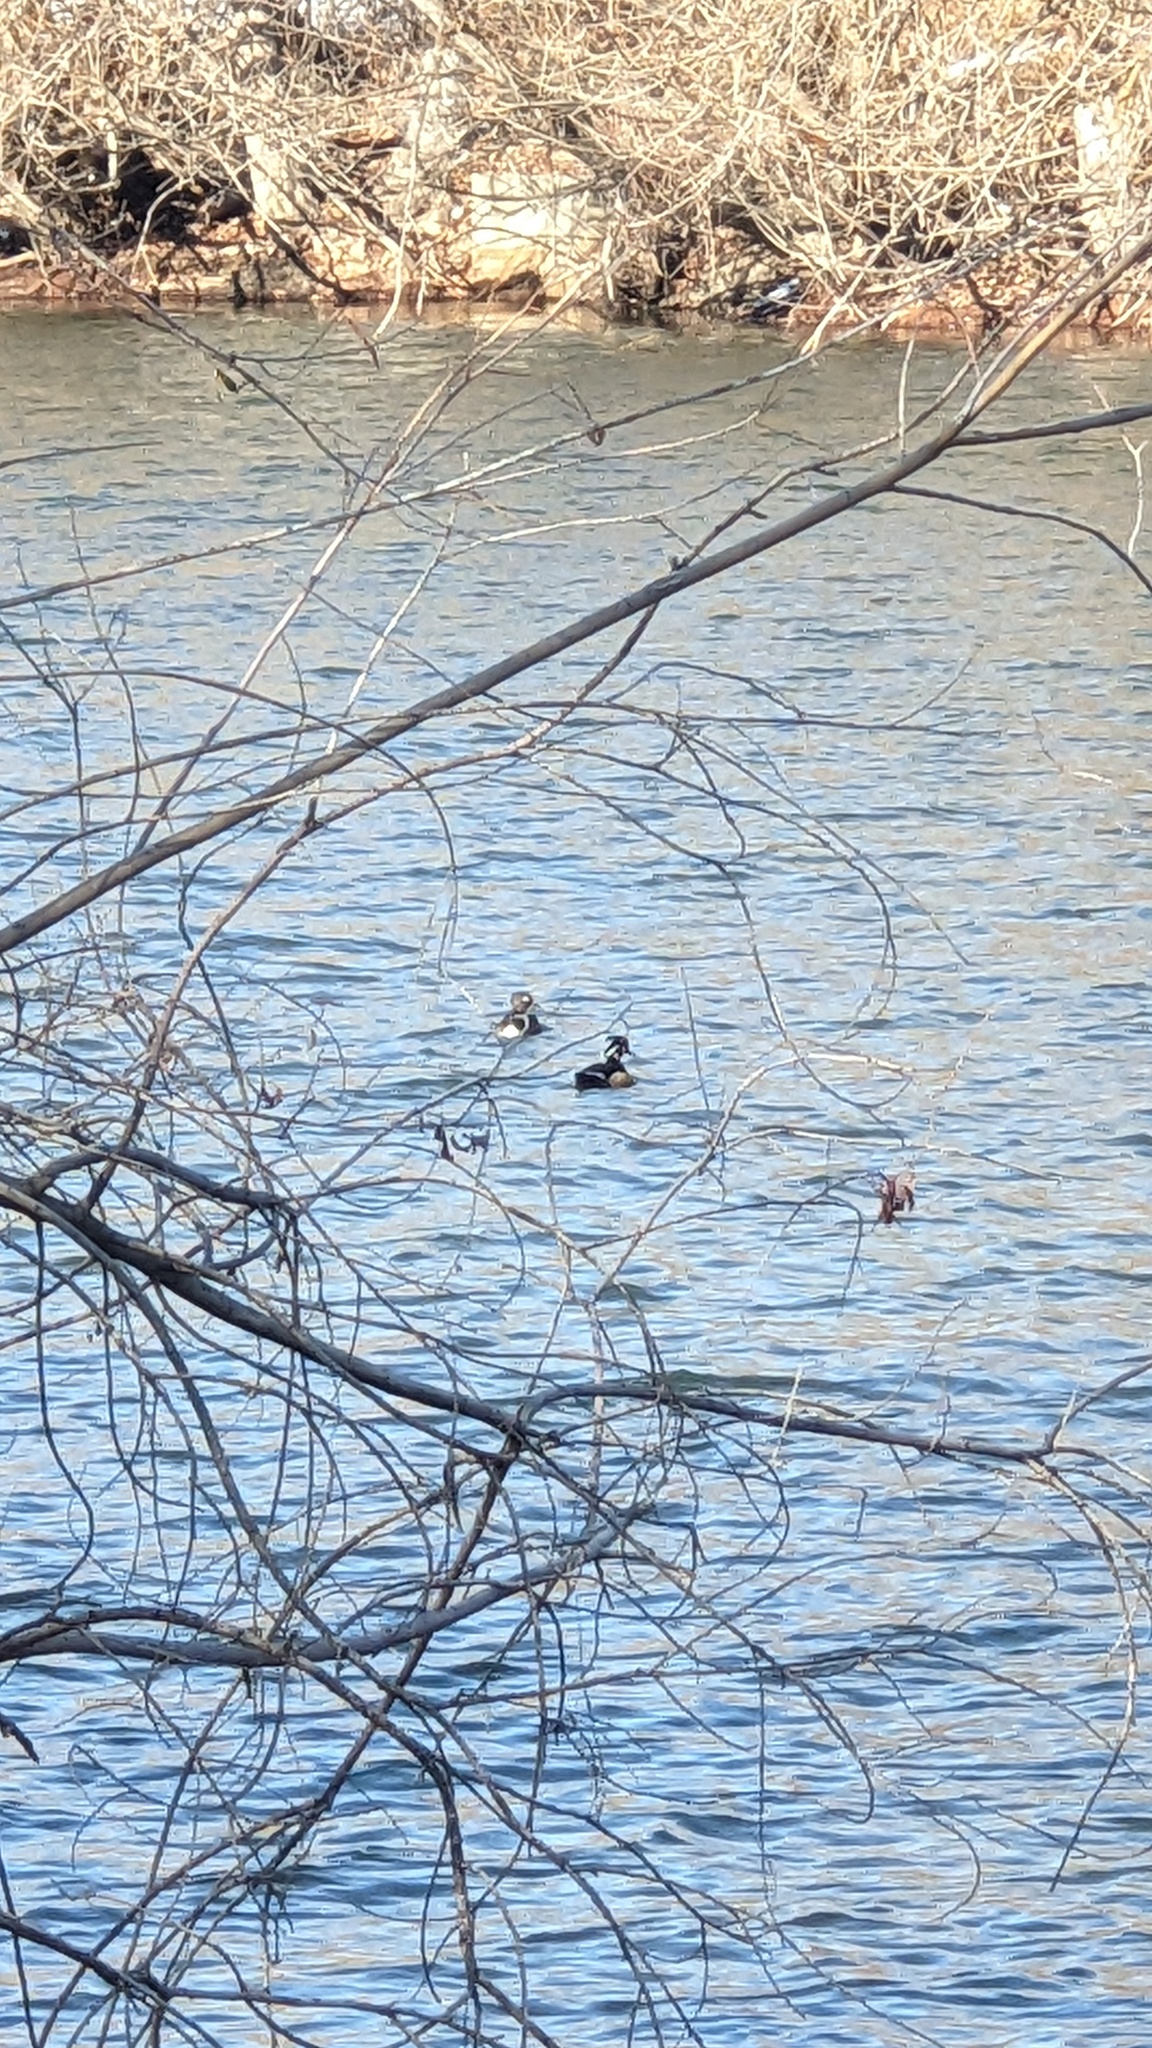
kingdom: Animalia
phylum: Chordata
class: Aves
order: Anseriformes
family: Anatidae
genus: Aix
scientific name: Aix sponsa
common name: Wood duck
